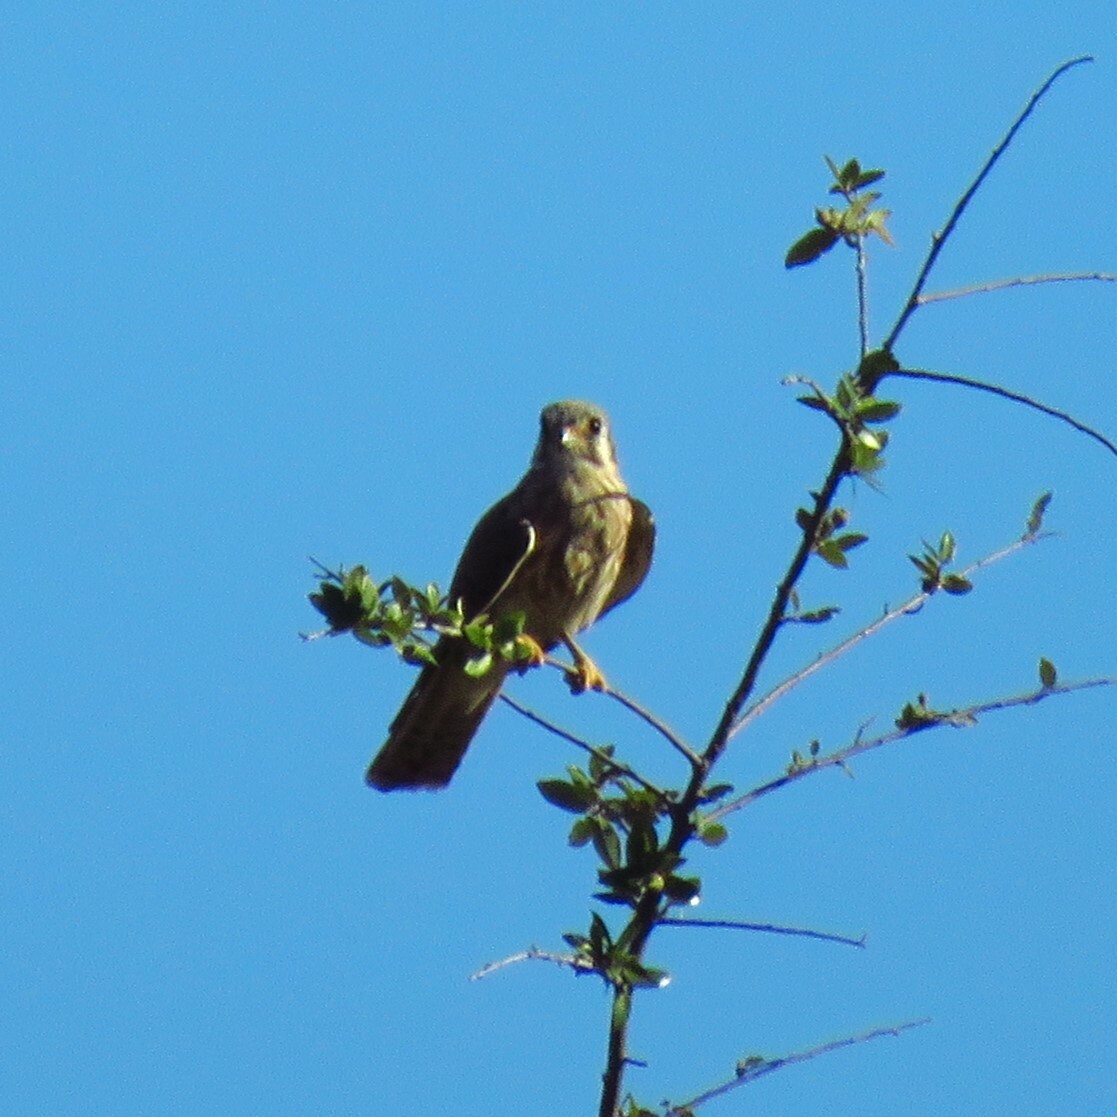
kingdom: Animalia
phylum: Chordata
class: Aves
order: Falconiformes
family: Falconidae
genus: Falco
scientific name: Falco sparverius
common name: American kestrel
